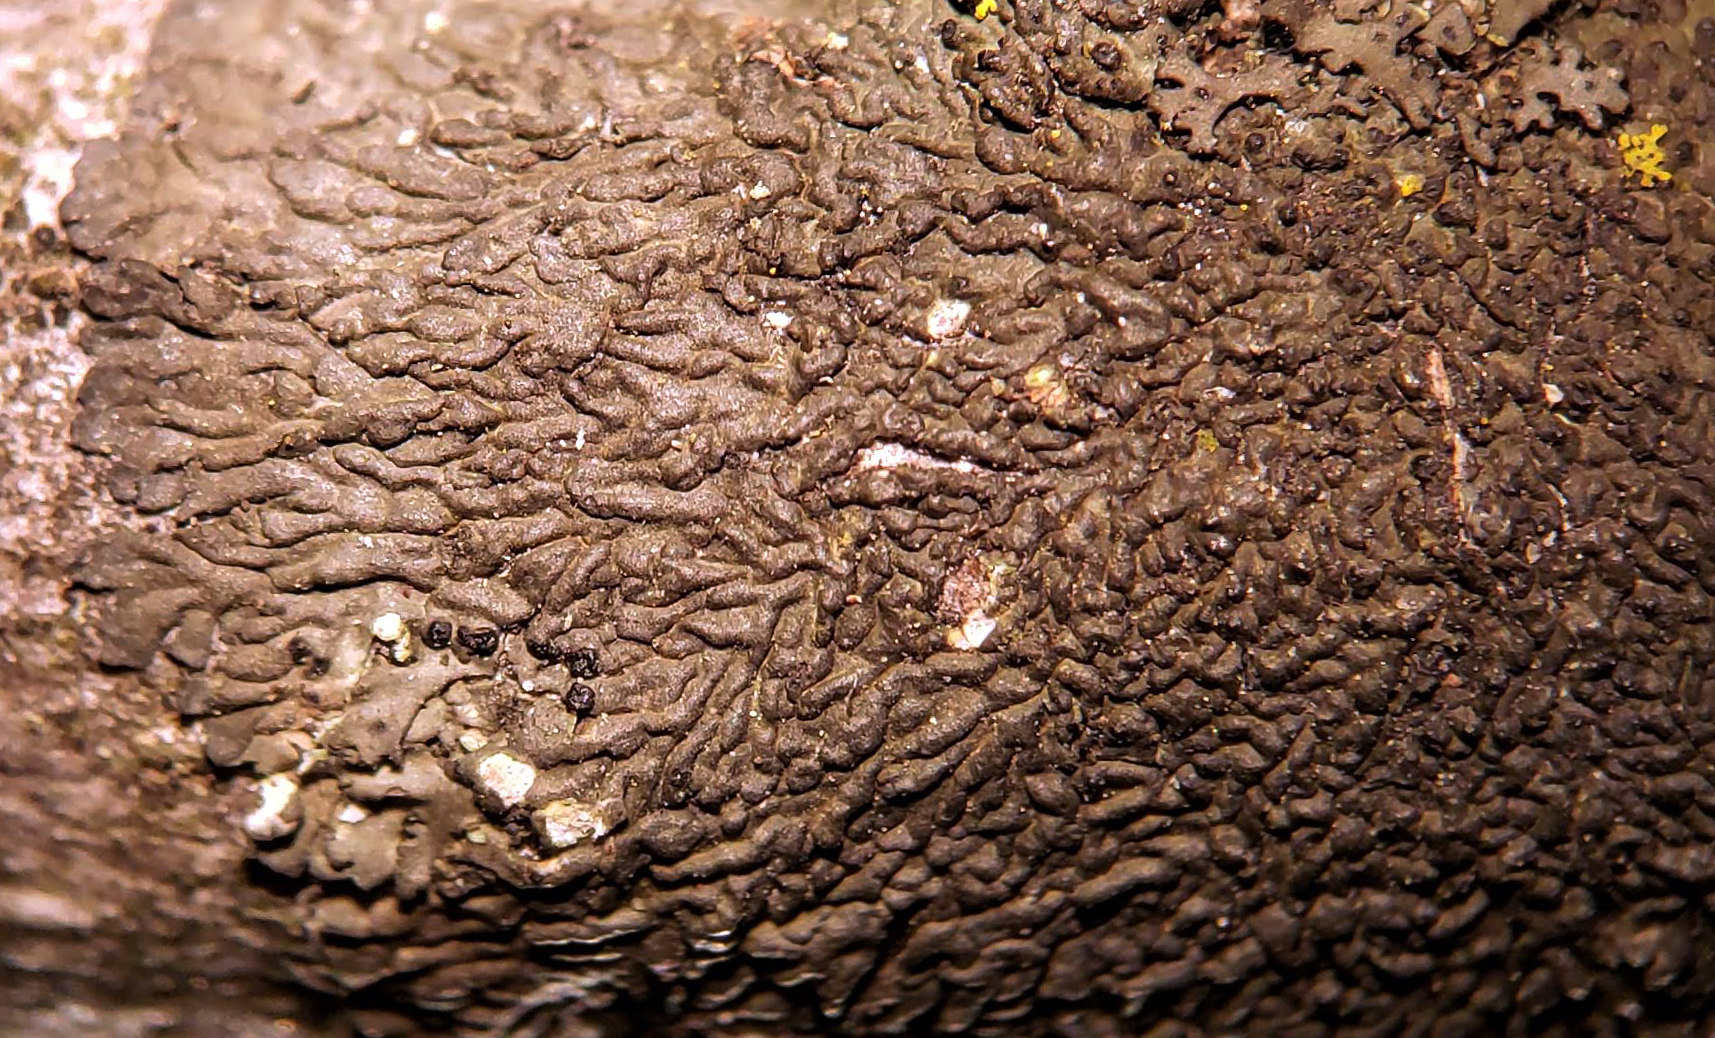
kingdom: Fungi
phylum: Ascomycota
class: Lecanoromycetes
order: Caliciales
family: Physciaceae
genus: Hyperphyscia
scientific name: Hyperphyscia syncolla
